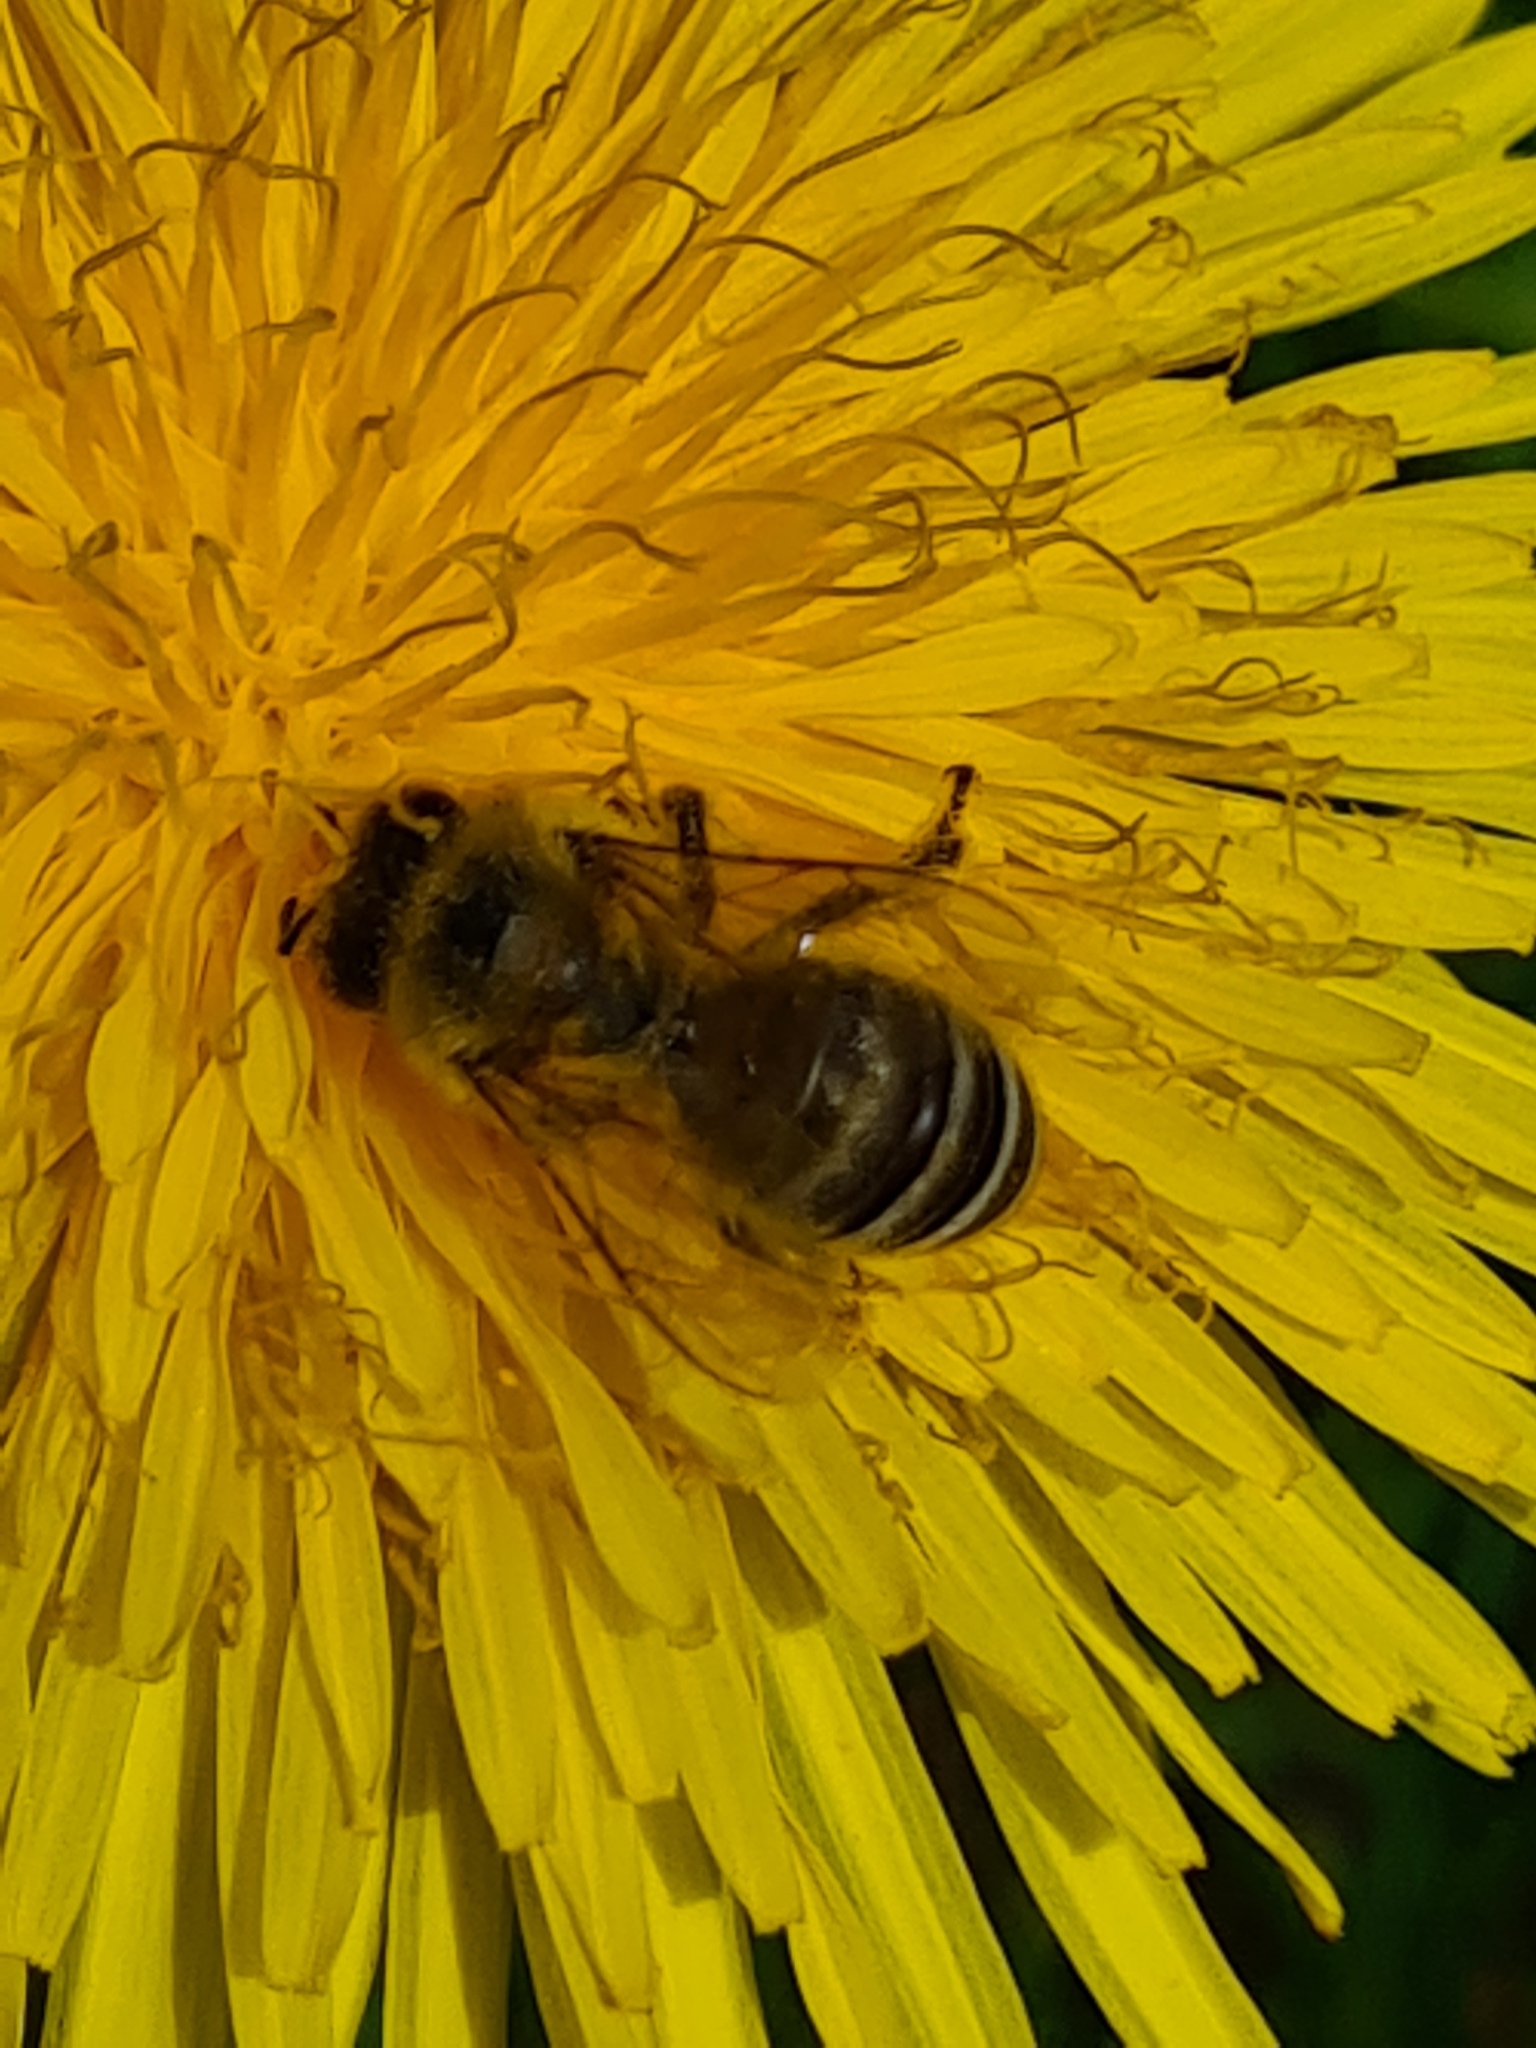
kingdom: Animalia
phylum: Arthropoda
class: Insecta
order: Hymenoptera
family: Apidae
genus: Apis
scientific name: Apis mellifera
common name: Honey bee
